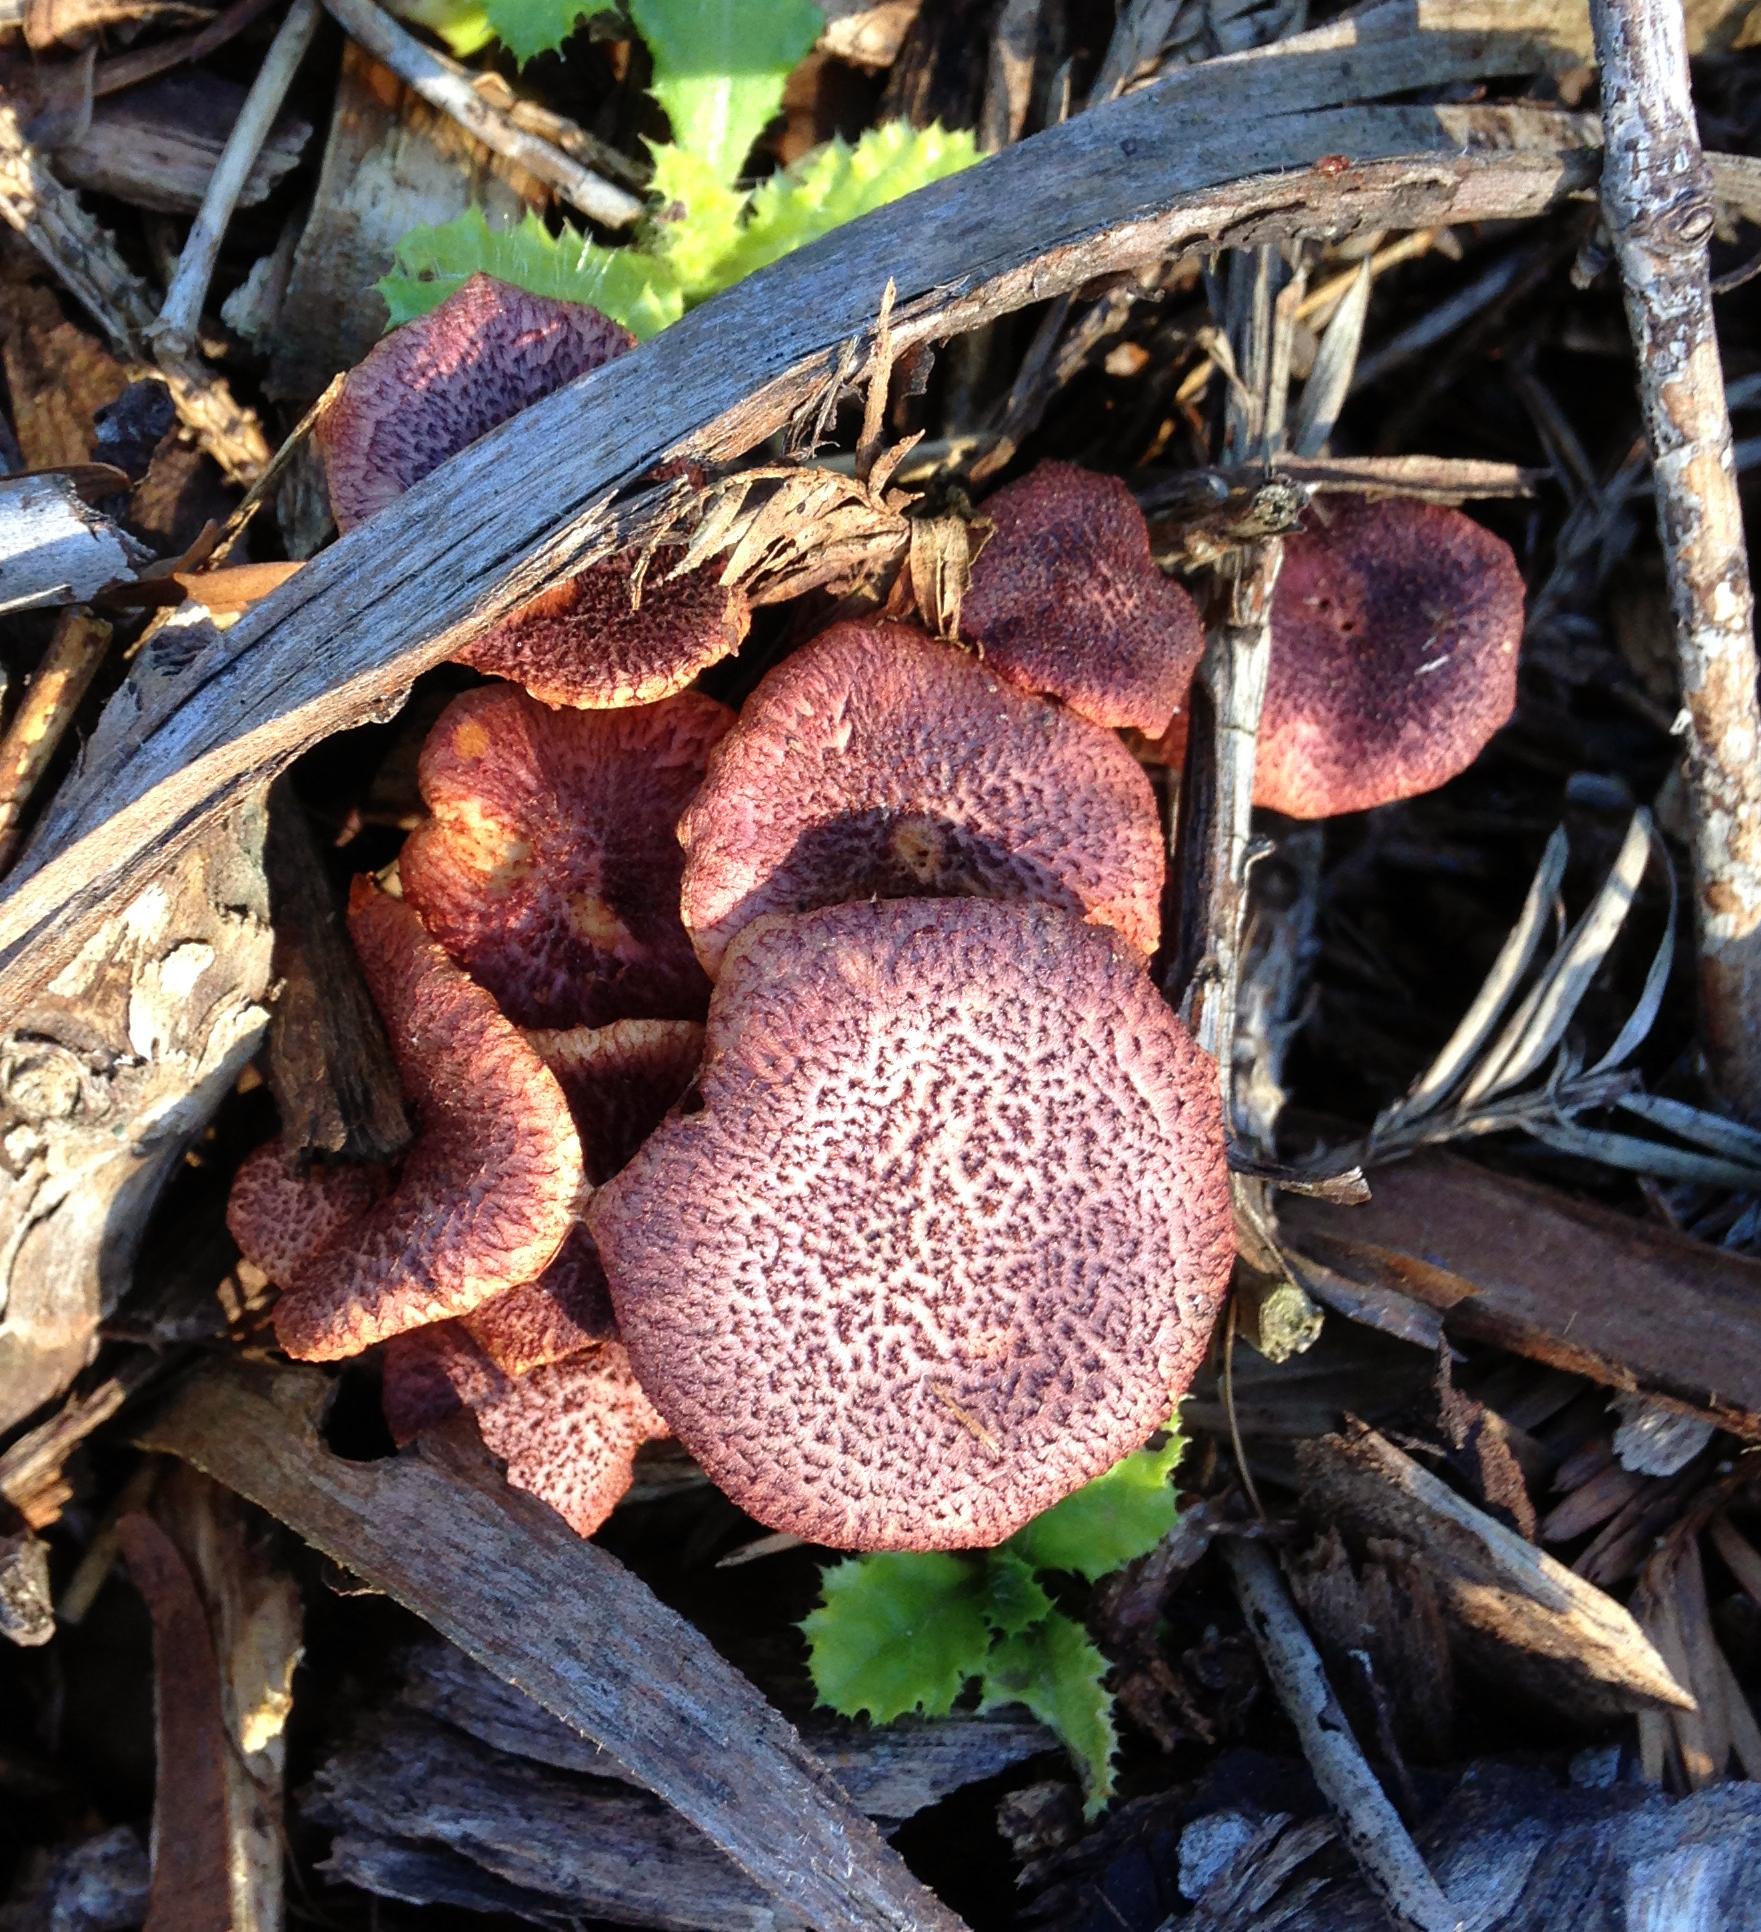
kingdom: Fungi
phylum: Basidiomycota
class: Agaricomycetes
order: Agaricales
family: Hymenogastraceae
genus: Gymnopilus
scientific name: Gymnopilus dilepis
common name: Magenta rustgill
